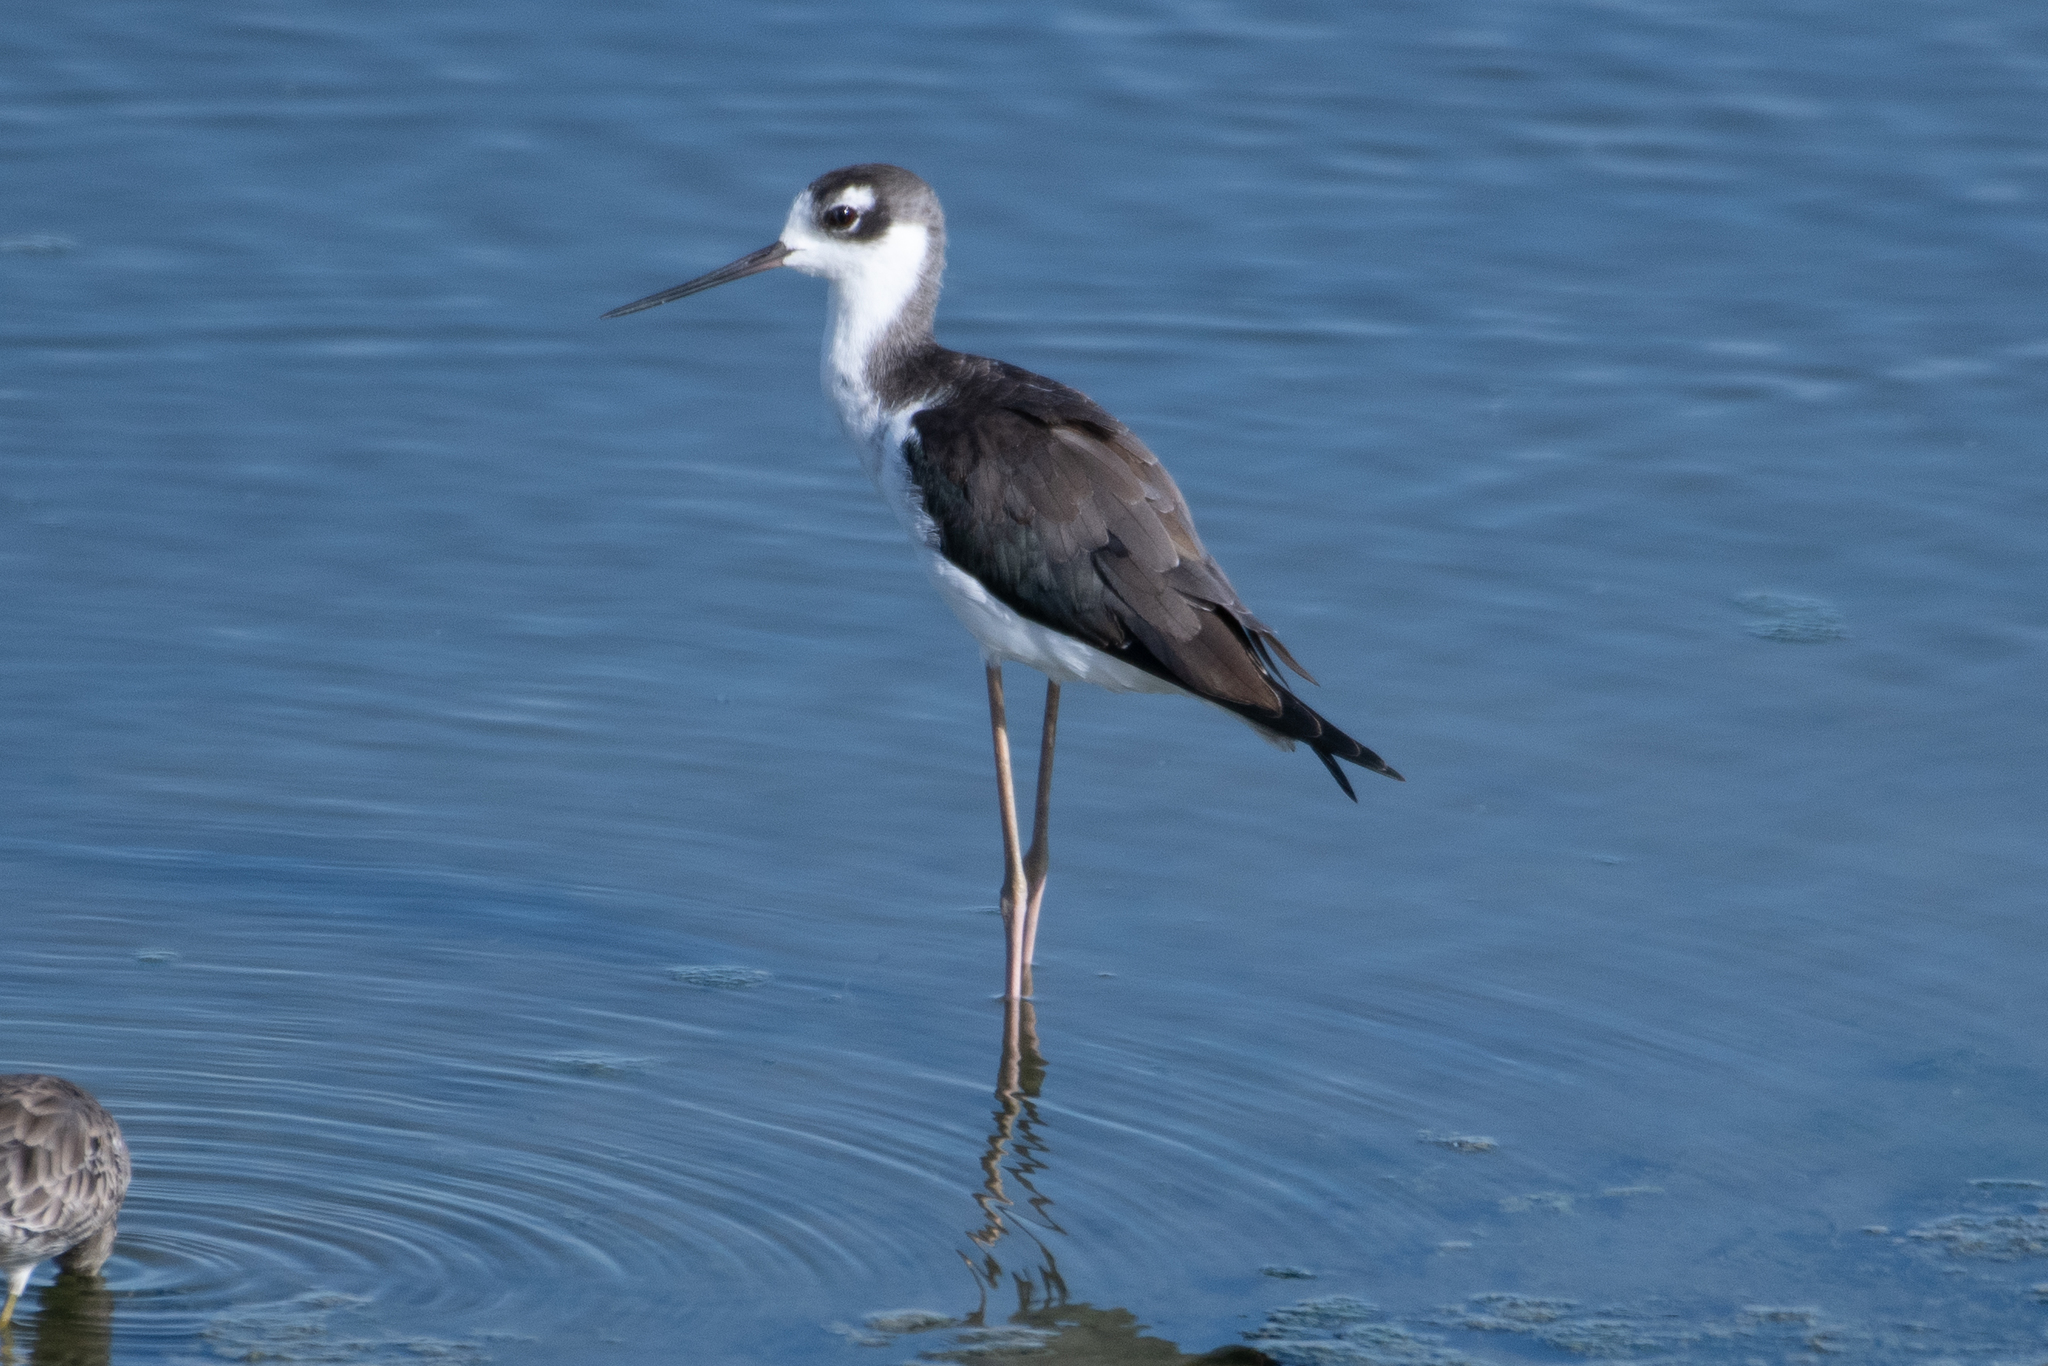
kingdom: Animalia
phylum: Chordata
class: Aves
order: Charadriiformes
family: Recurvirostridae
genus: Himantopus
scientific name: Himantopus mexicanus
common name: Black-necked stilt
